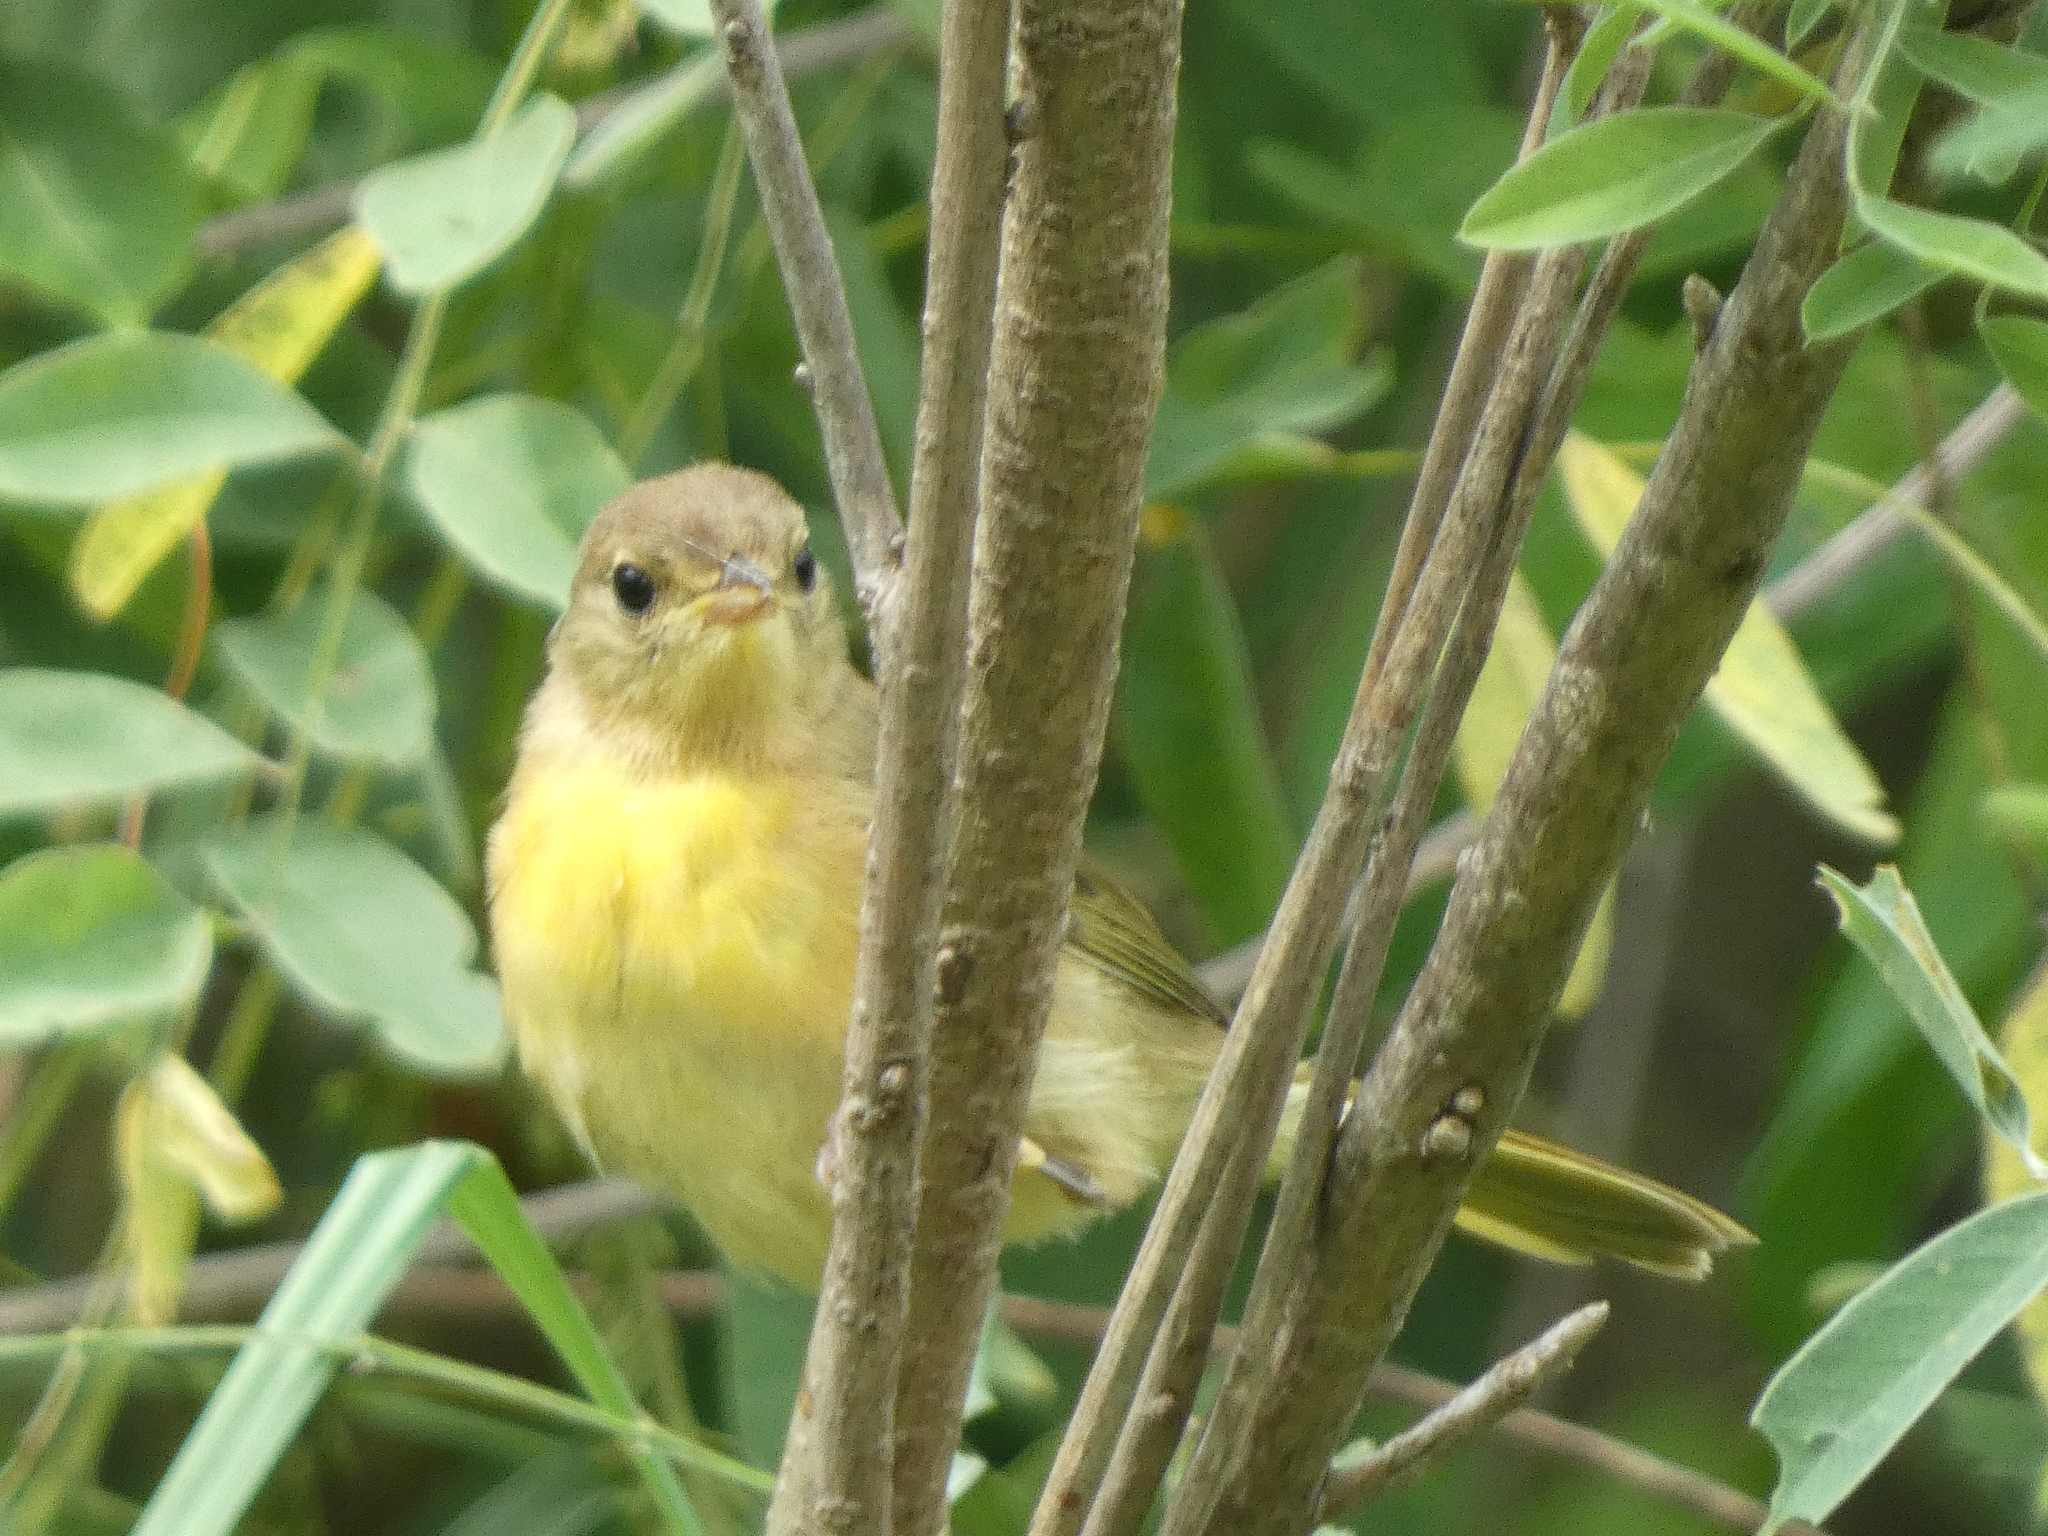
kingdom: Animalia
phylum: Chordata
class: Aves
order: Passeriformes
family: Parulidae
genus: Geothlypis
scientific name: Geothlypis trichas
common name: Common yellowthroat
